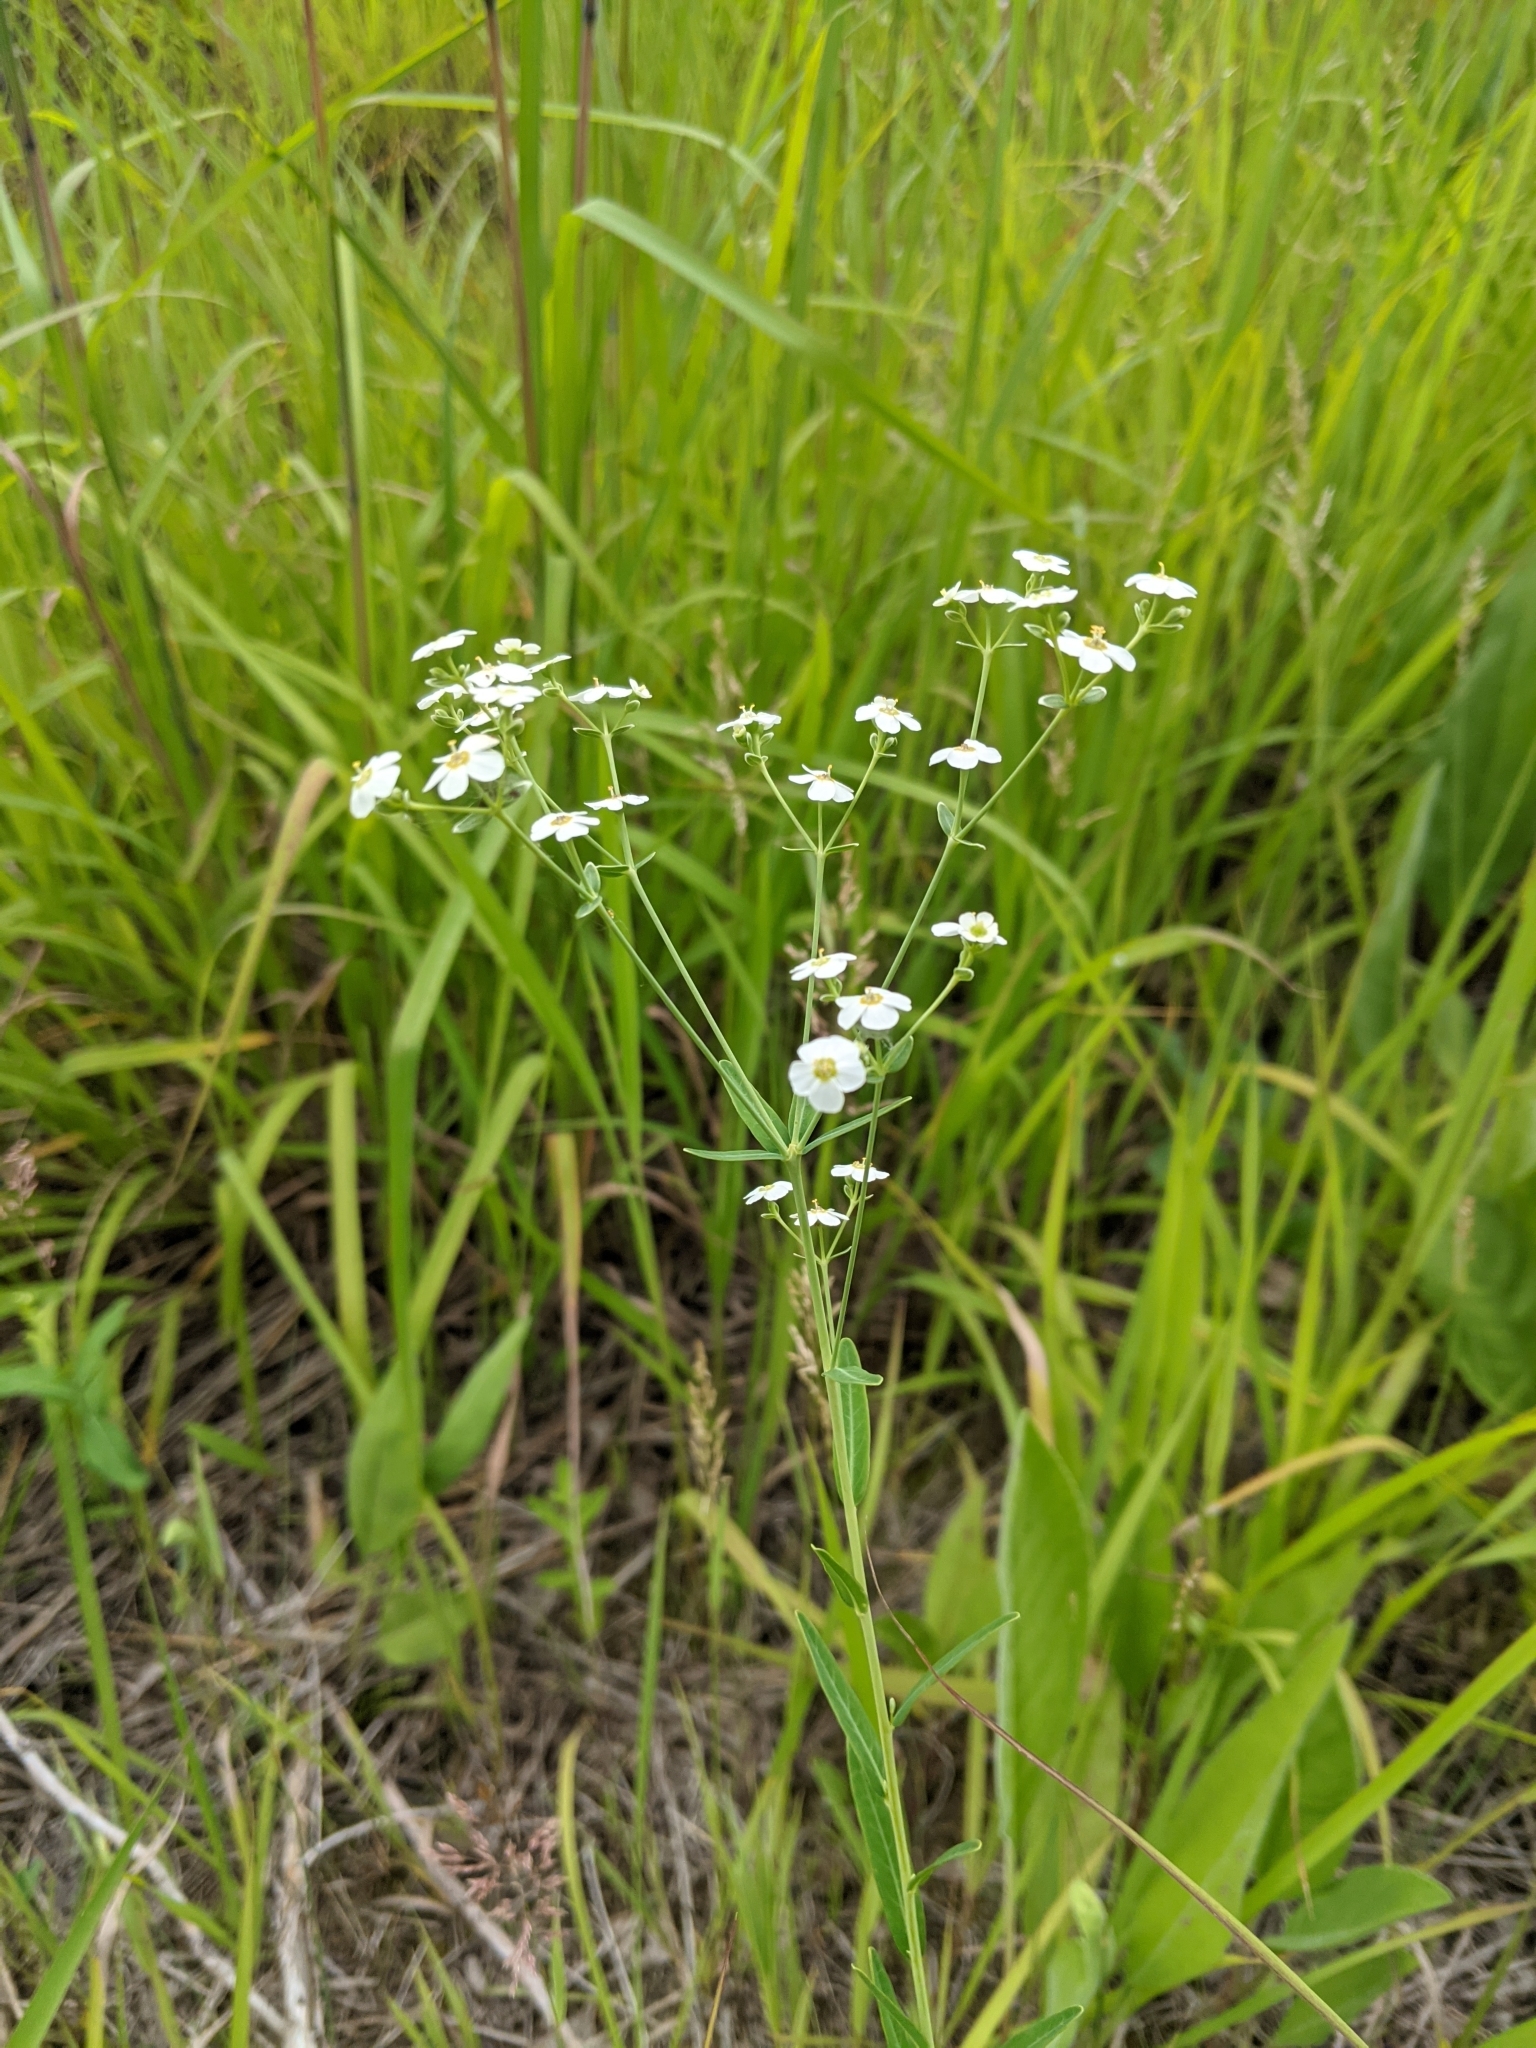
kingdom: Plantae
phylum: Tracheophyta
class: Magnoliopsida
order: Malpighiales
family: Euphorbiaceae
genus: Euphorbia
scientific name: Euphorbia corollata
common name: Flowering spurge
